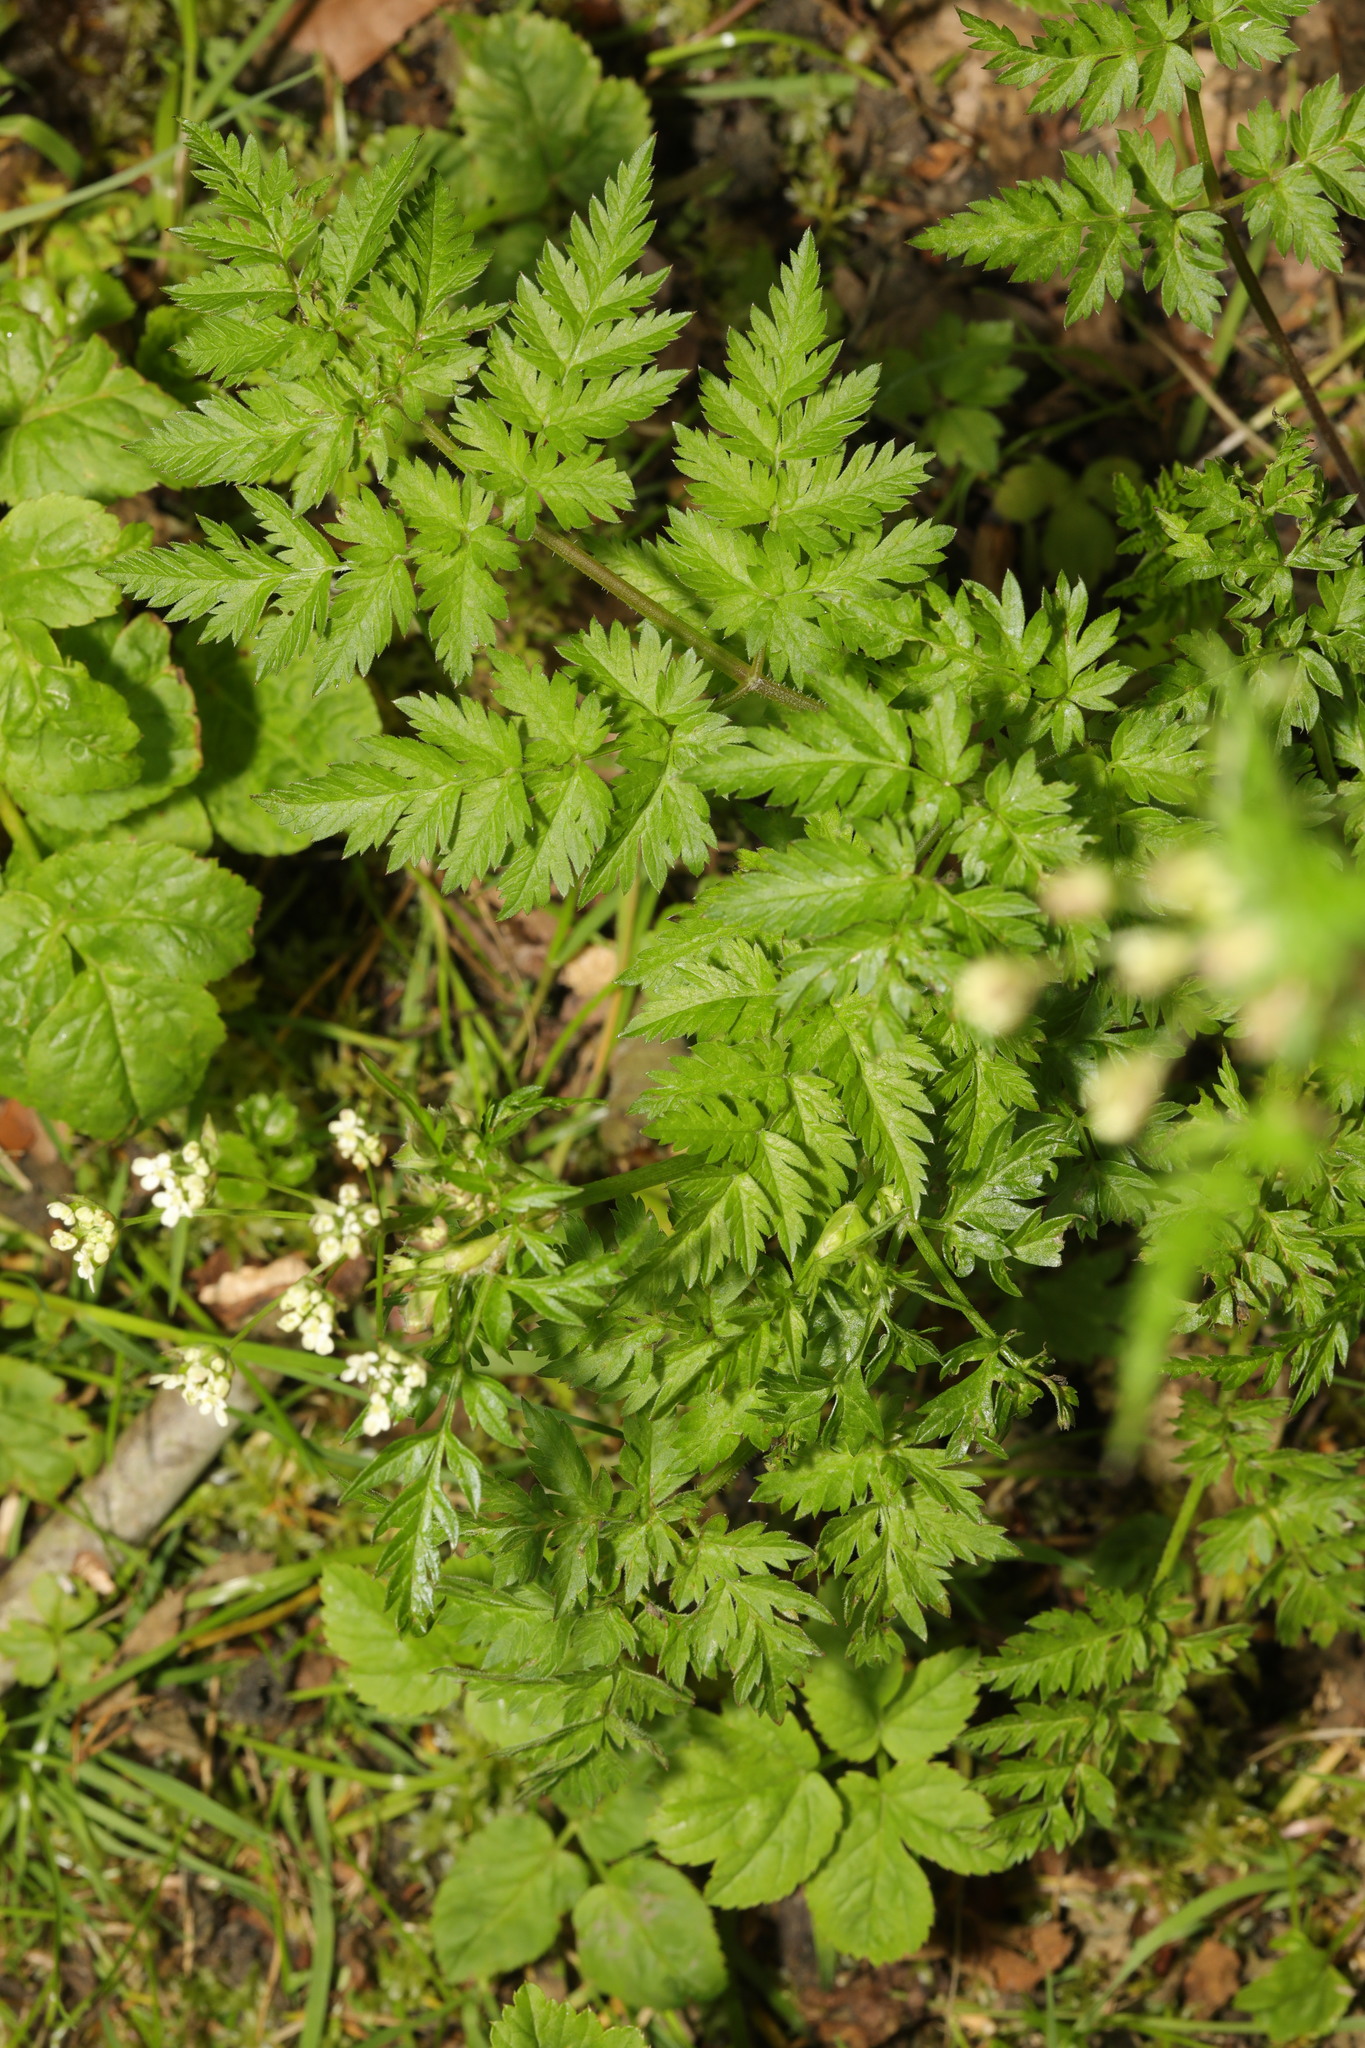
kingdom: Plantae
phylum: Tracheophyta
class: Magnoliopsida
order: Apiales
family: Apiaceae
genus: Anthriscus
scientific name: Anthriscus sylvestris
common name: Cow parsley
